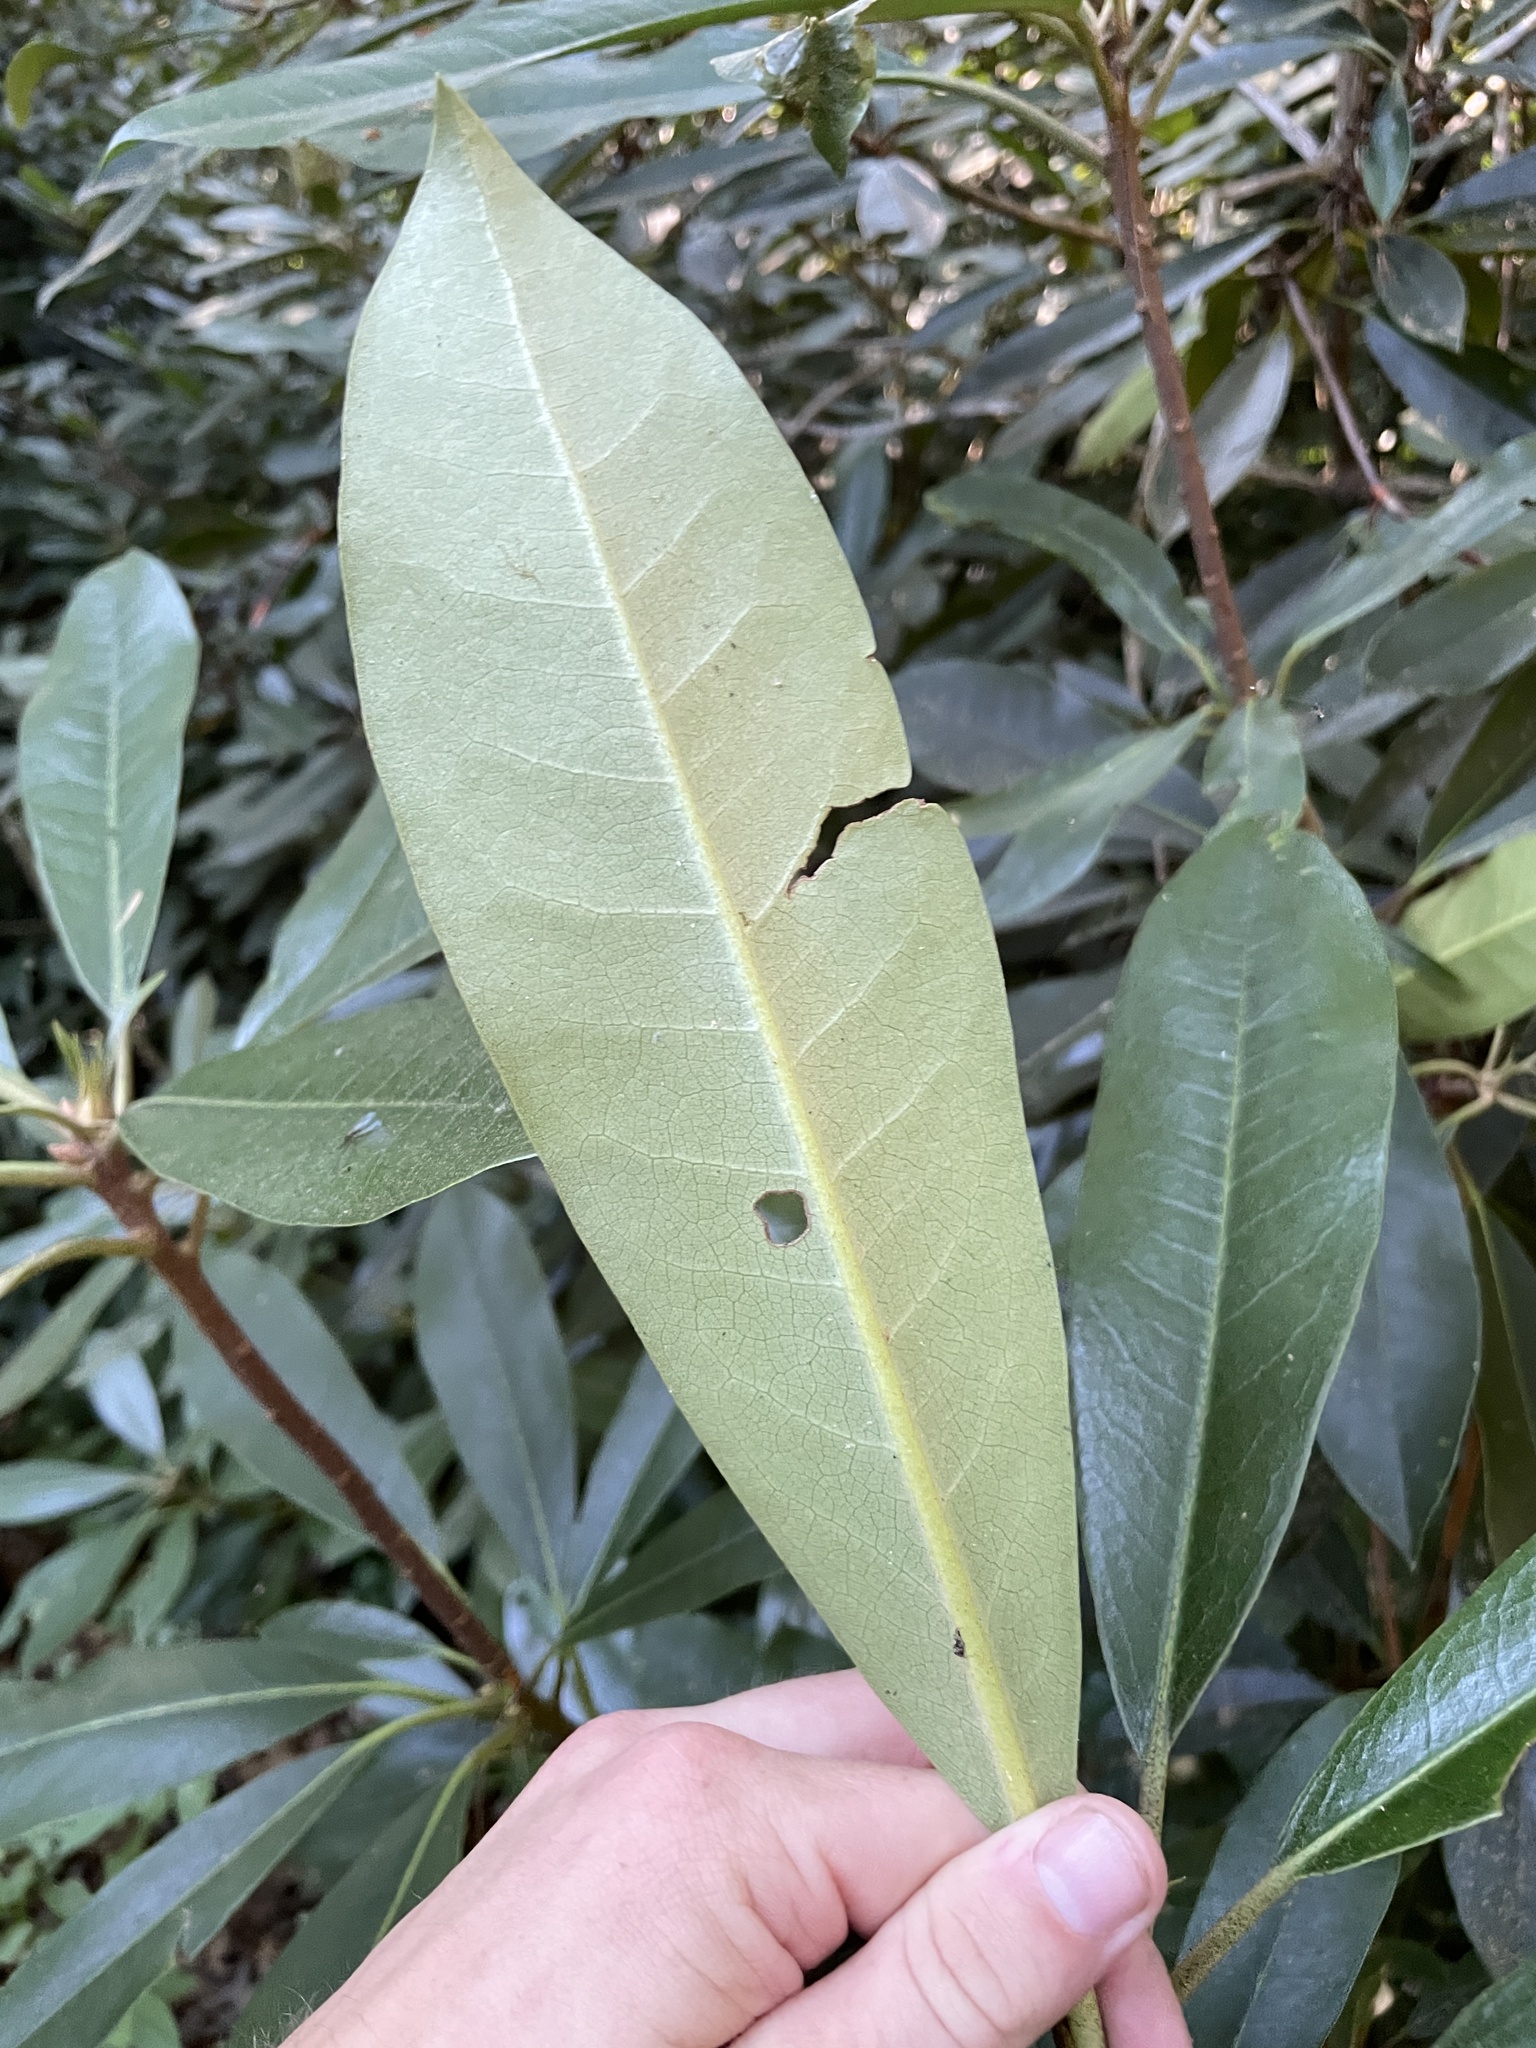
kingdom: Plantae
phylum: Tracheophyta
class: Magnoliopsida
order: Ericales
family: Ericaceae
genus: Rhododendron
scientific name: Rhododendron maximum
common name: Great rhododendron
